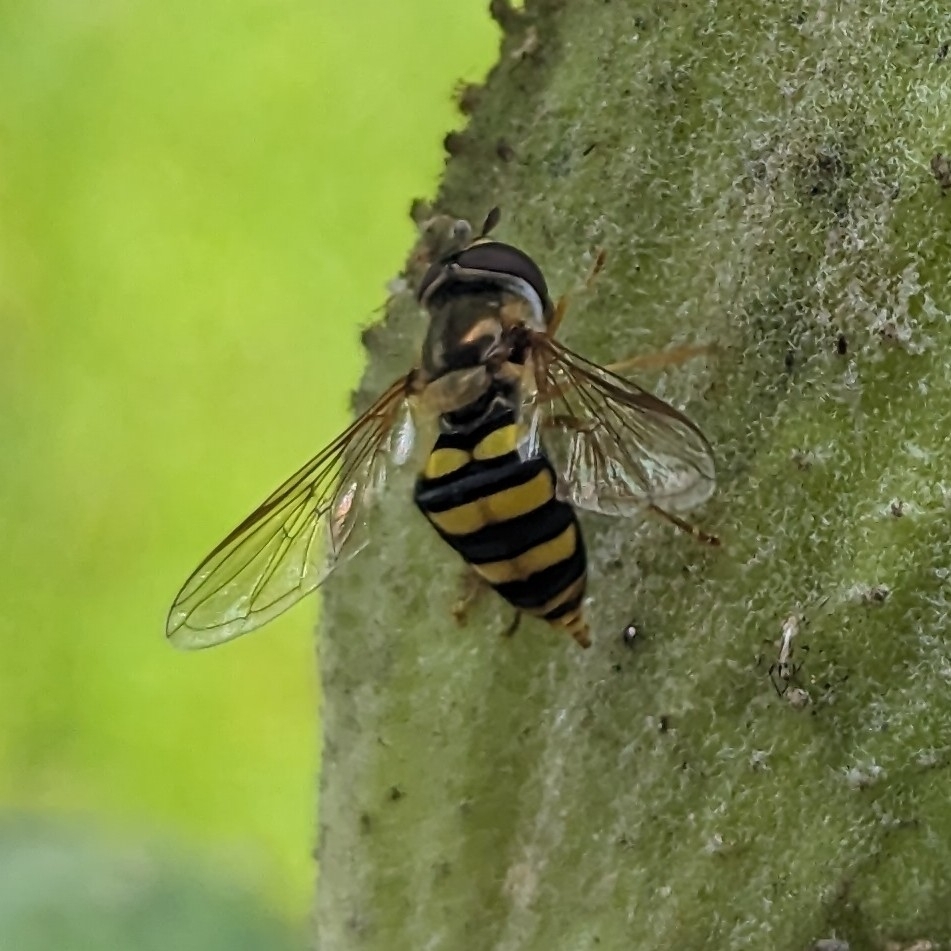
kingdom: Animalia
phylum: Arthropoda
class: Insecta
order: Diptera
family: Syrphidae
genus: Eupeodes
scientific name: Eupeodes
